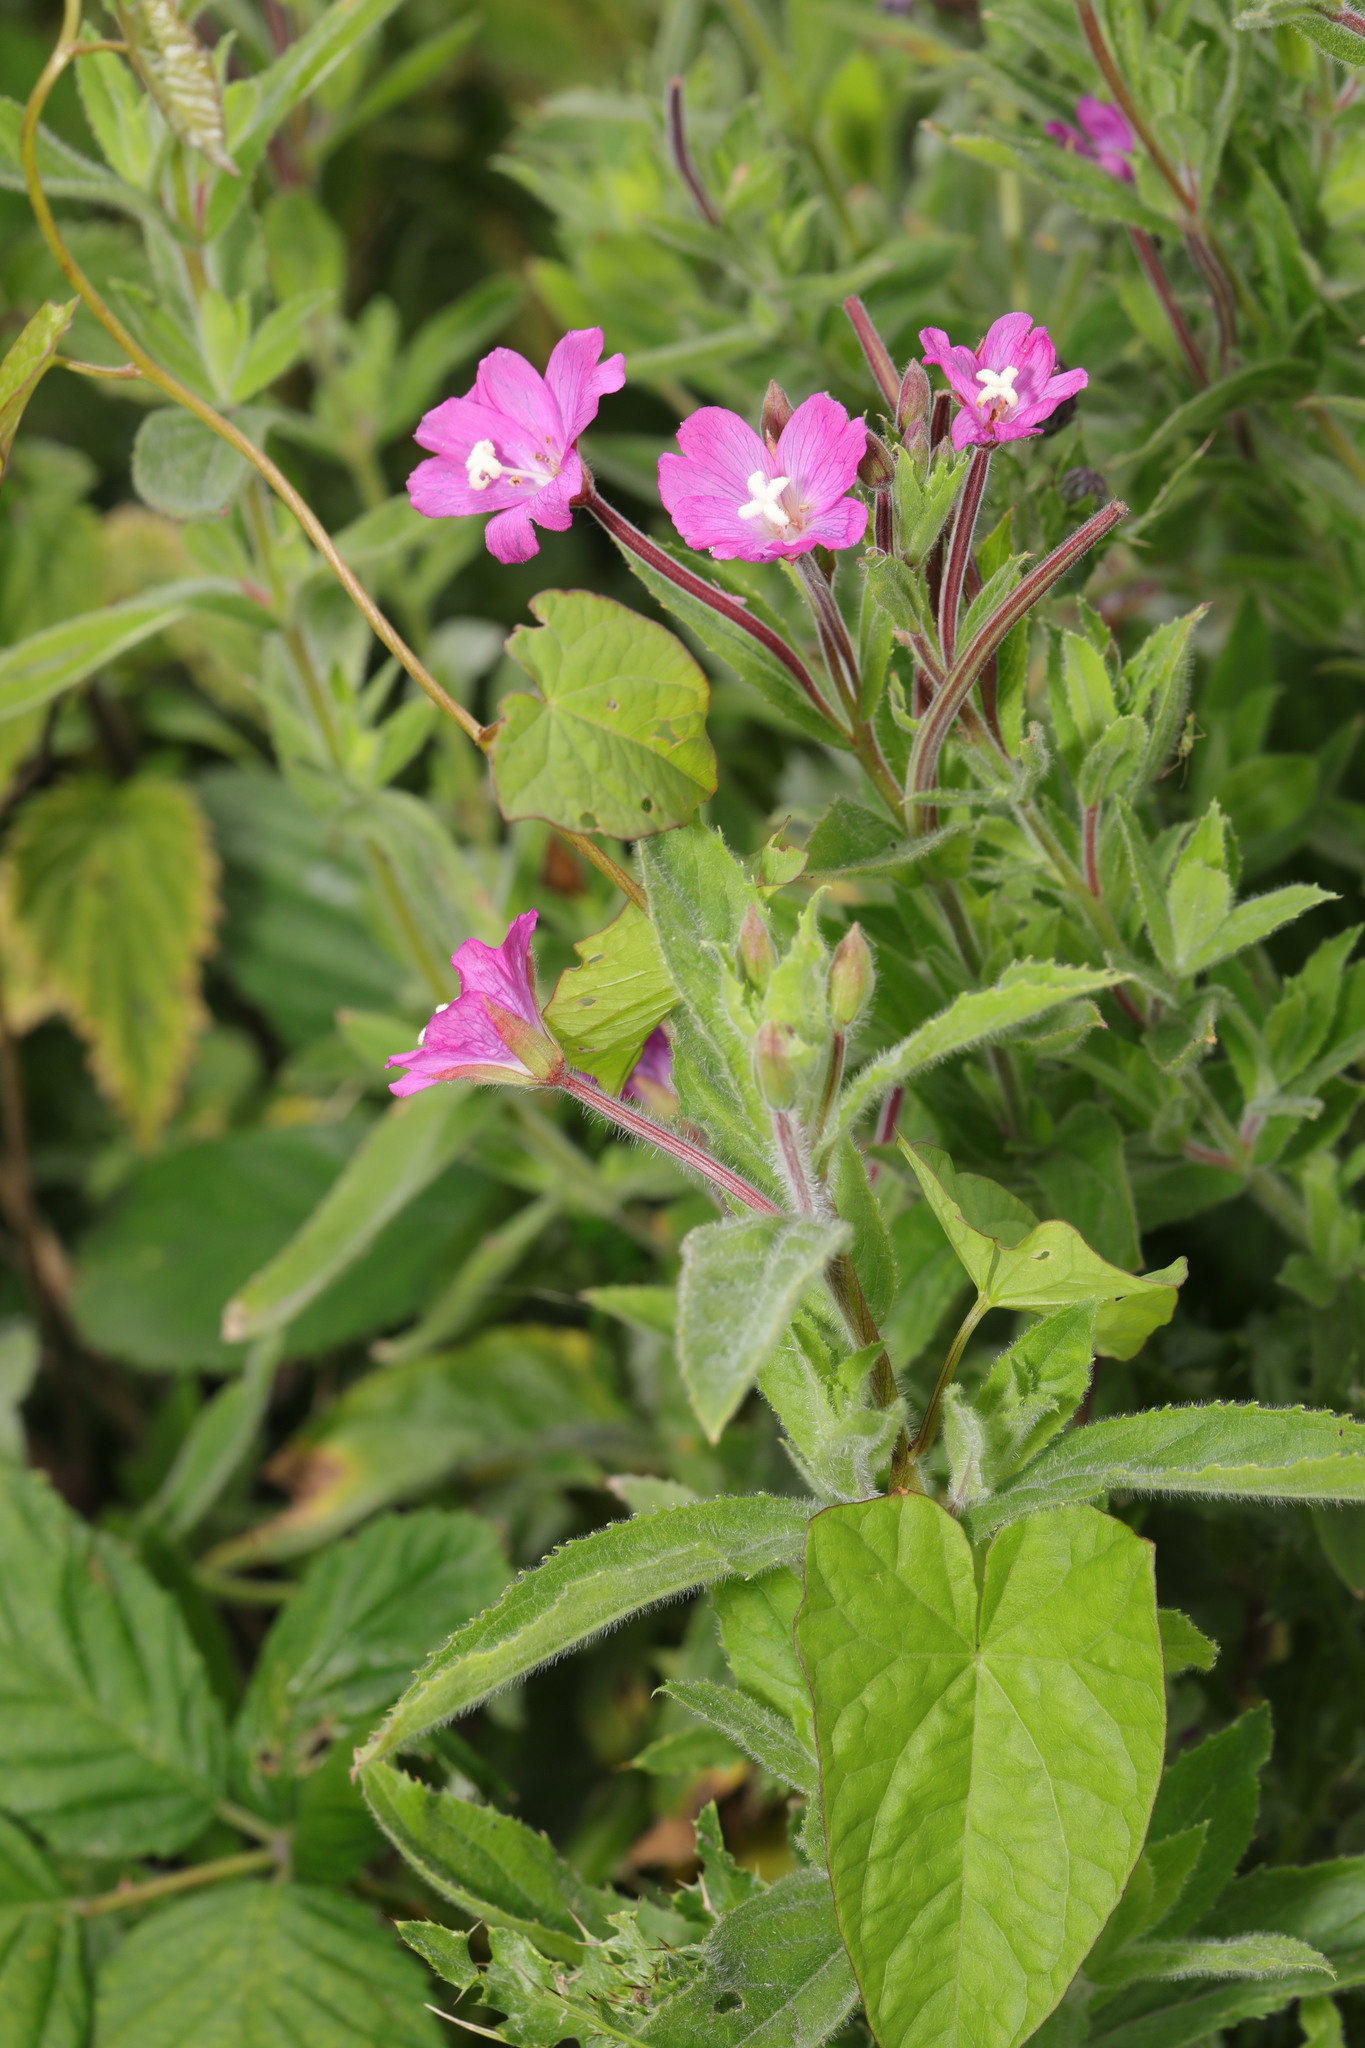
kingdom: Plantae
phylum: Tracheophyta
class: Magnoliopsida
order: Myrtales
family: Onagraceae
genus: Epilobium
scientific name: Epilobium hirsutum
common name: Great willowherb
